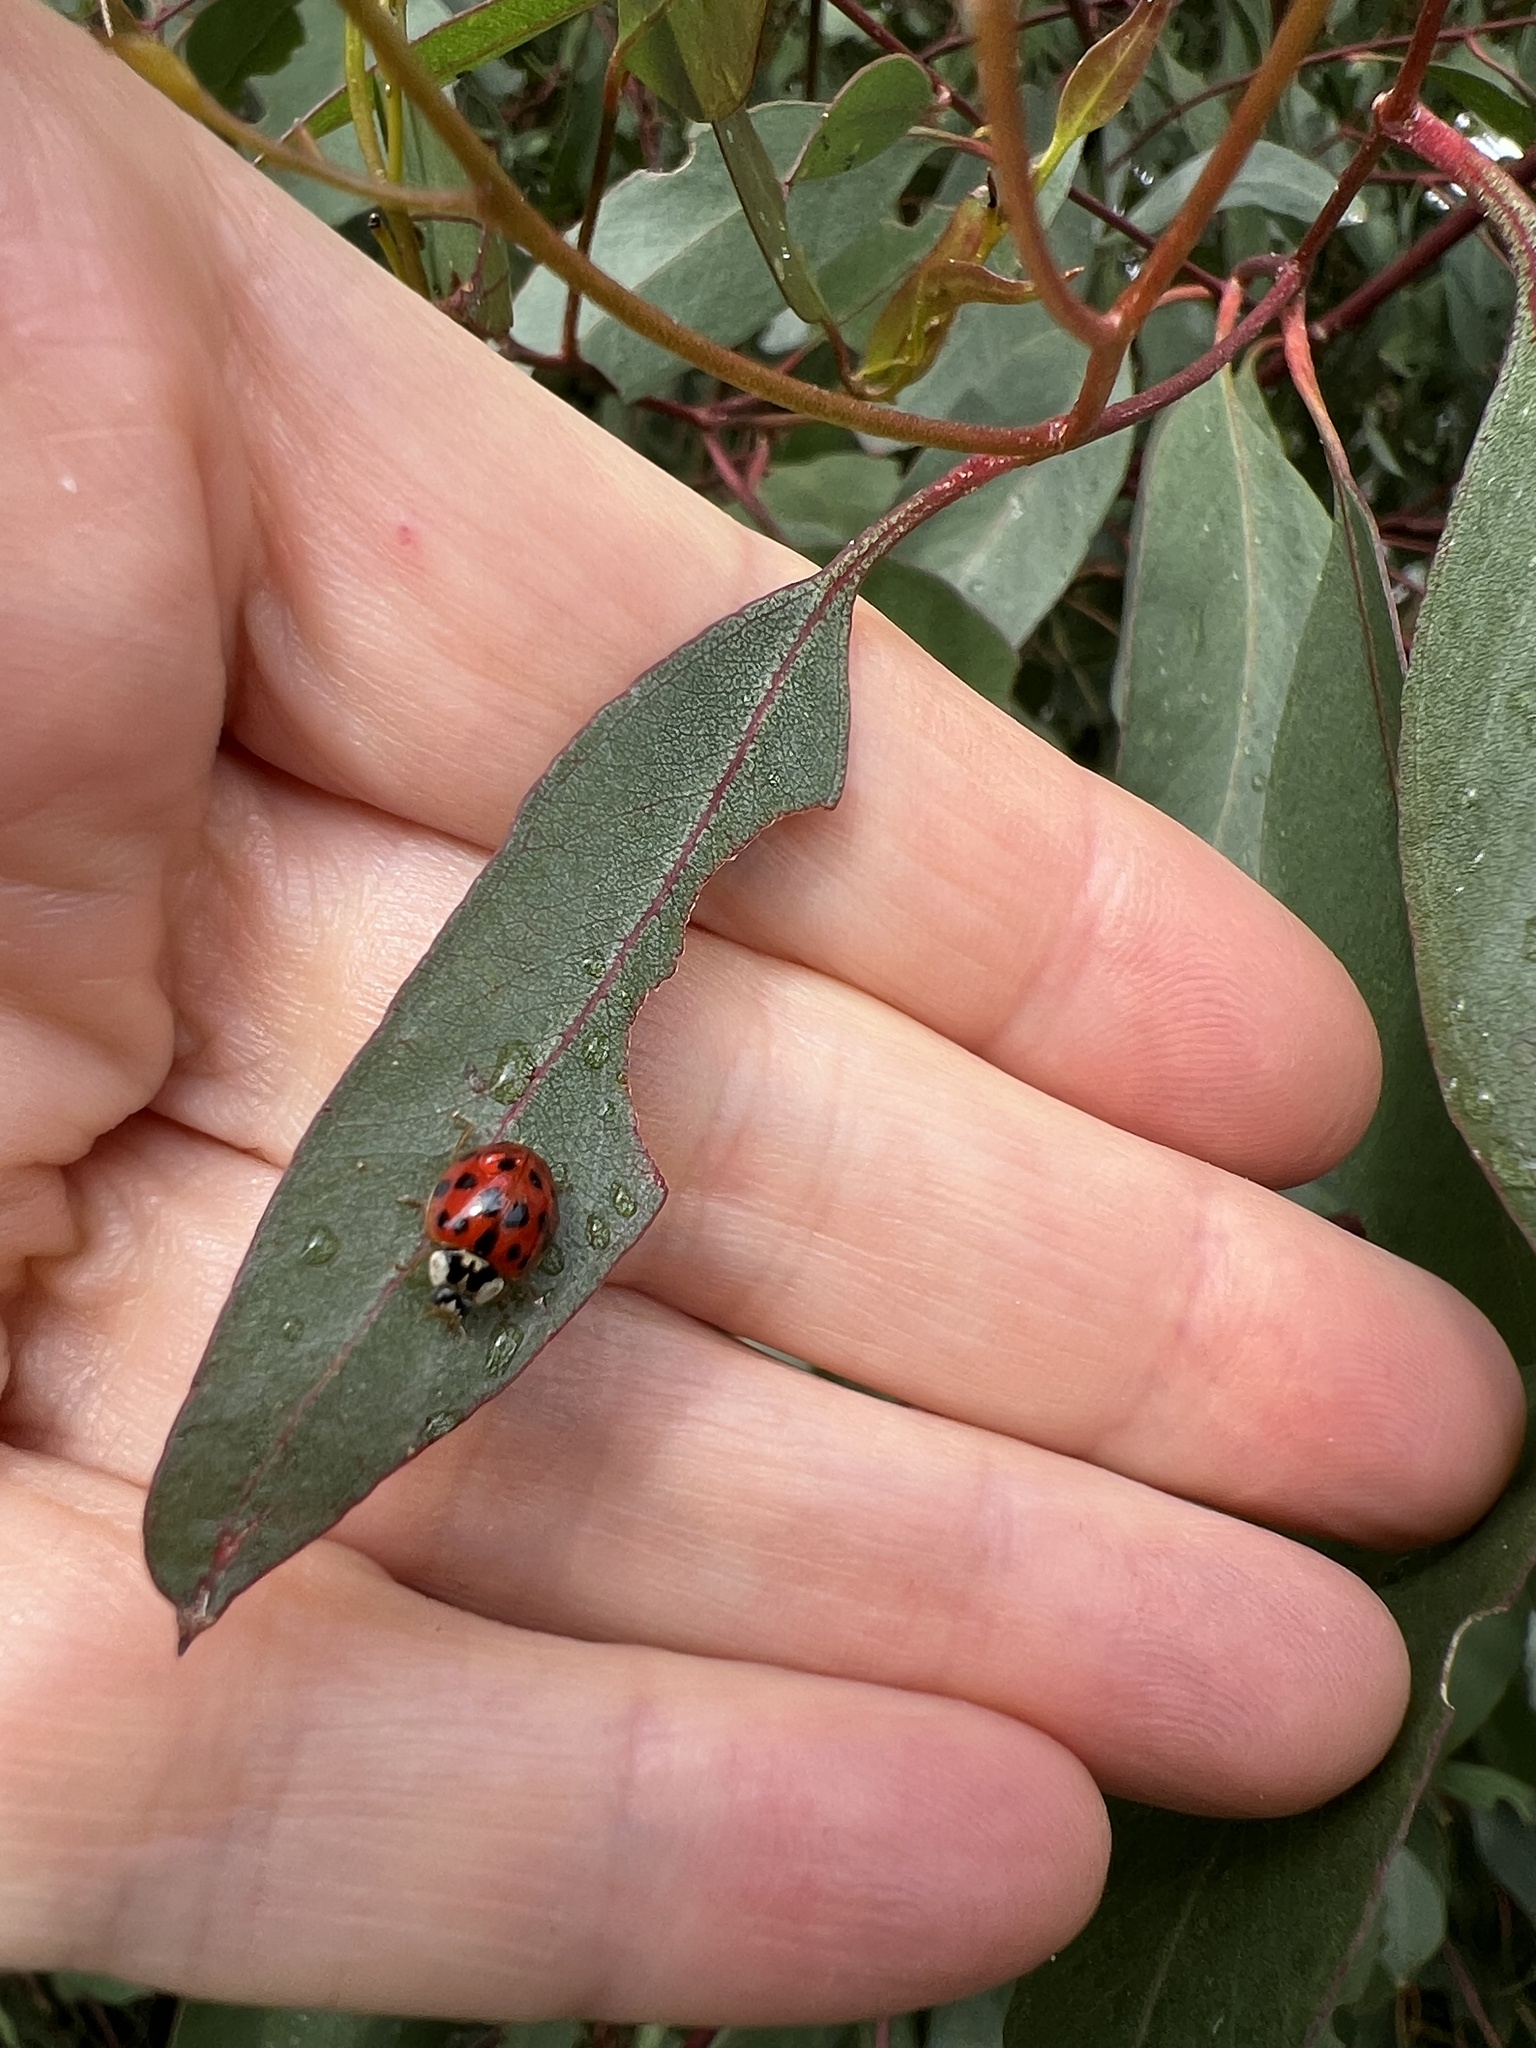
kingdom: Animalia
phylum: Arthropoda
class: Insecta
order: Coleoptera
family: Coccinellidae
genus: Harmonia
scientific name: Harmonia axyridis
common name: Harlequin ladybird
